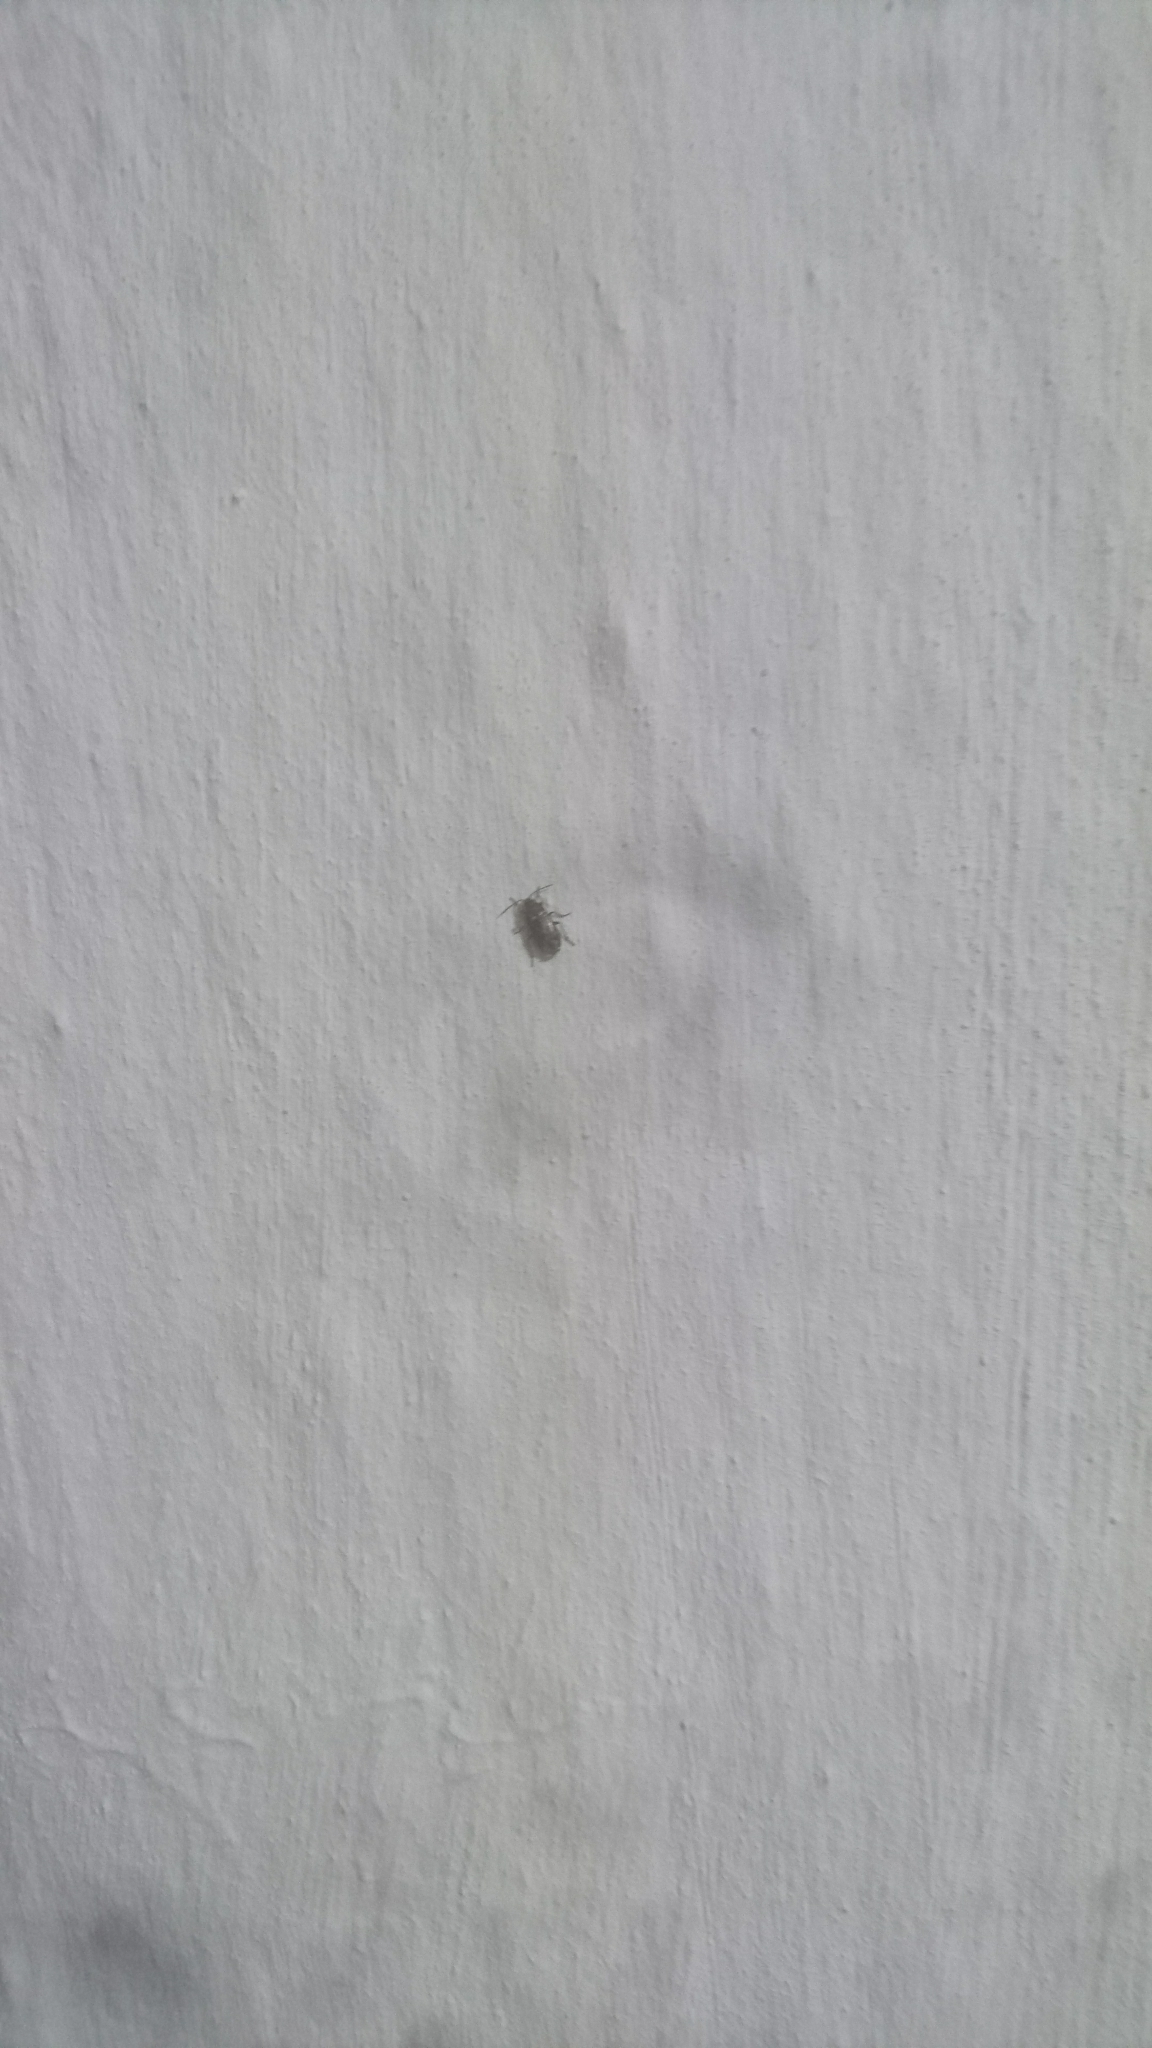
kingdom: Animalia
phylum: Arthropoda
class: Insecta
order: Hemiptera
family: Rhyparochromidae
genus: Lamprodema
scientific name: Lamprodema maura
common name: Seed bug
